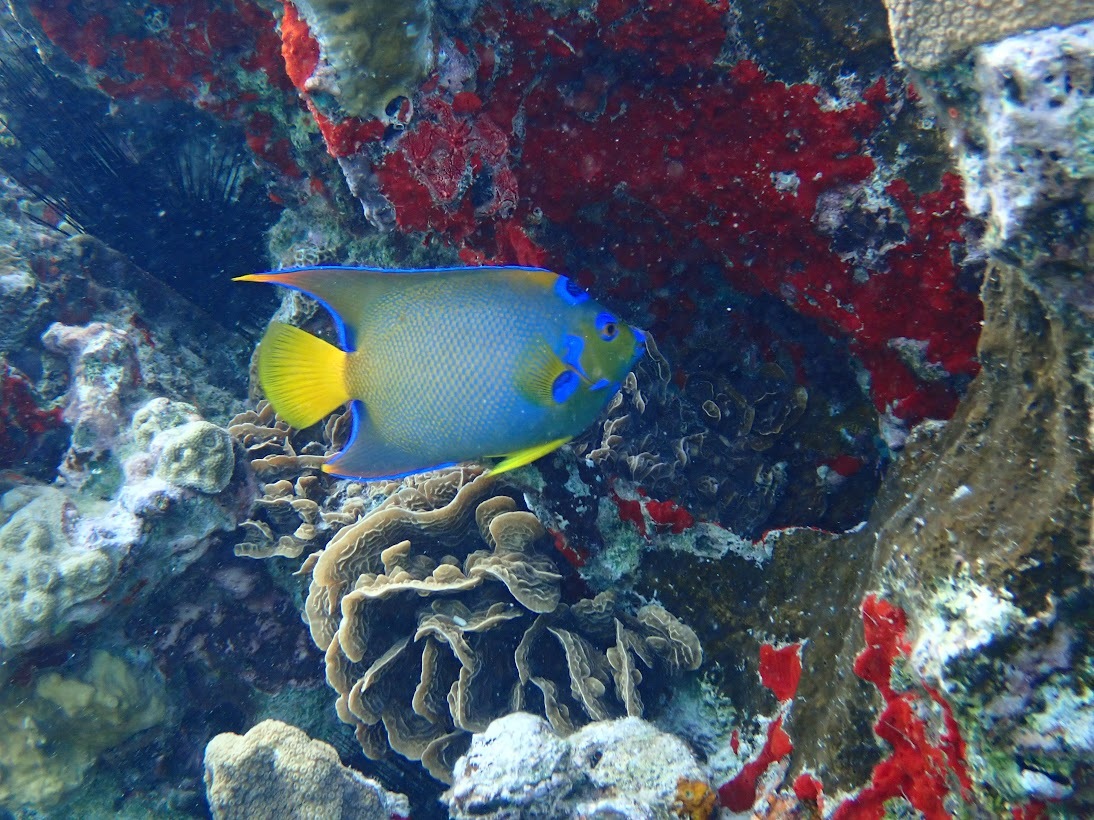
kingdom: Animalia
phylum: Chordata
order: Perciformes
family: Pomacanthidae
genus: Holacanthus
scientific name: Holacanthus ciliaris
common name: Queen angelfish
